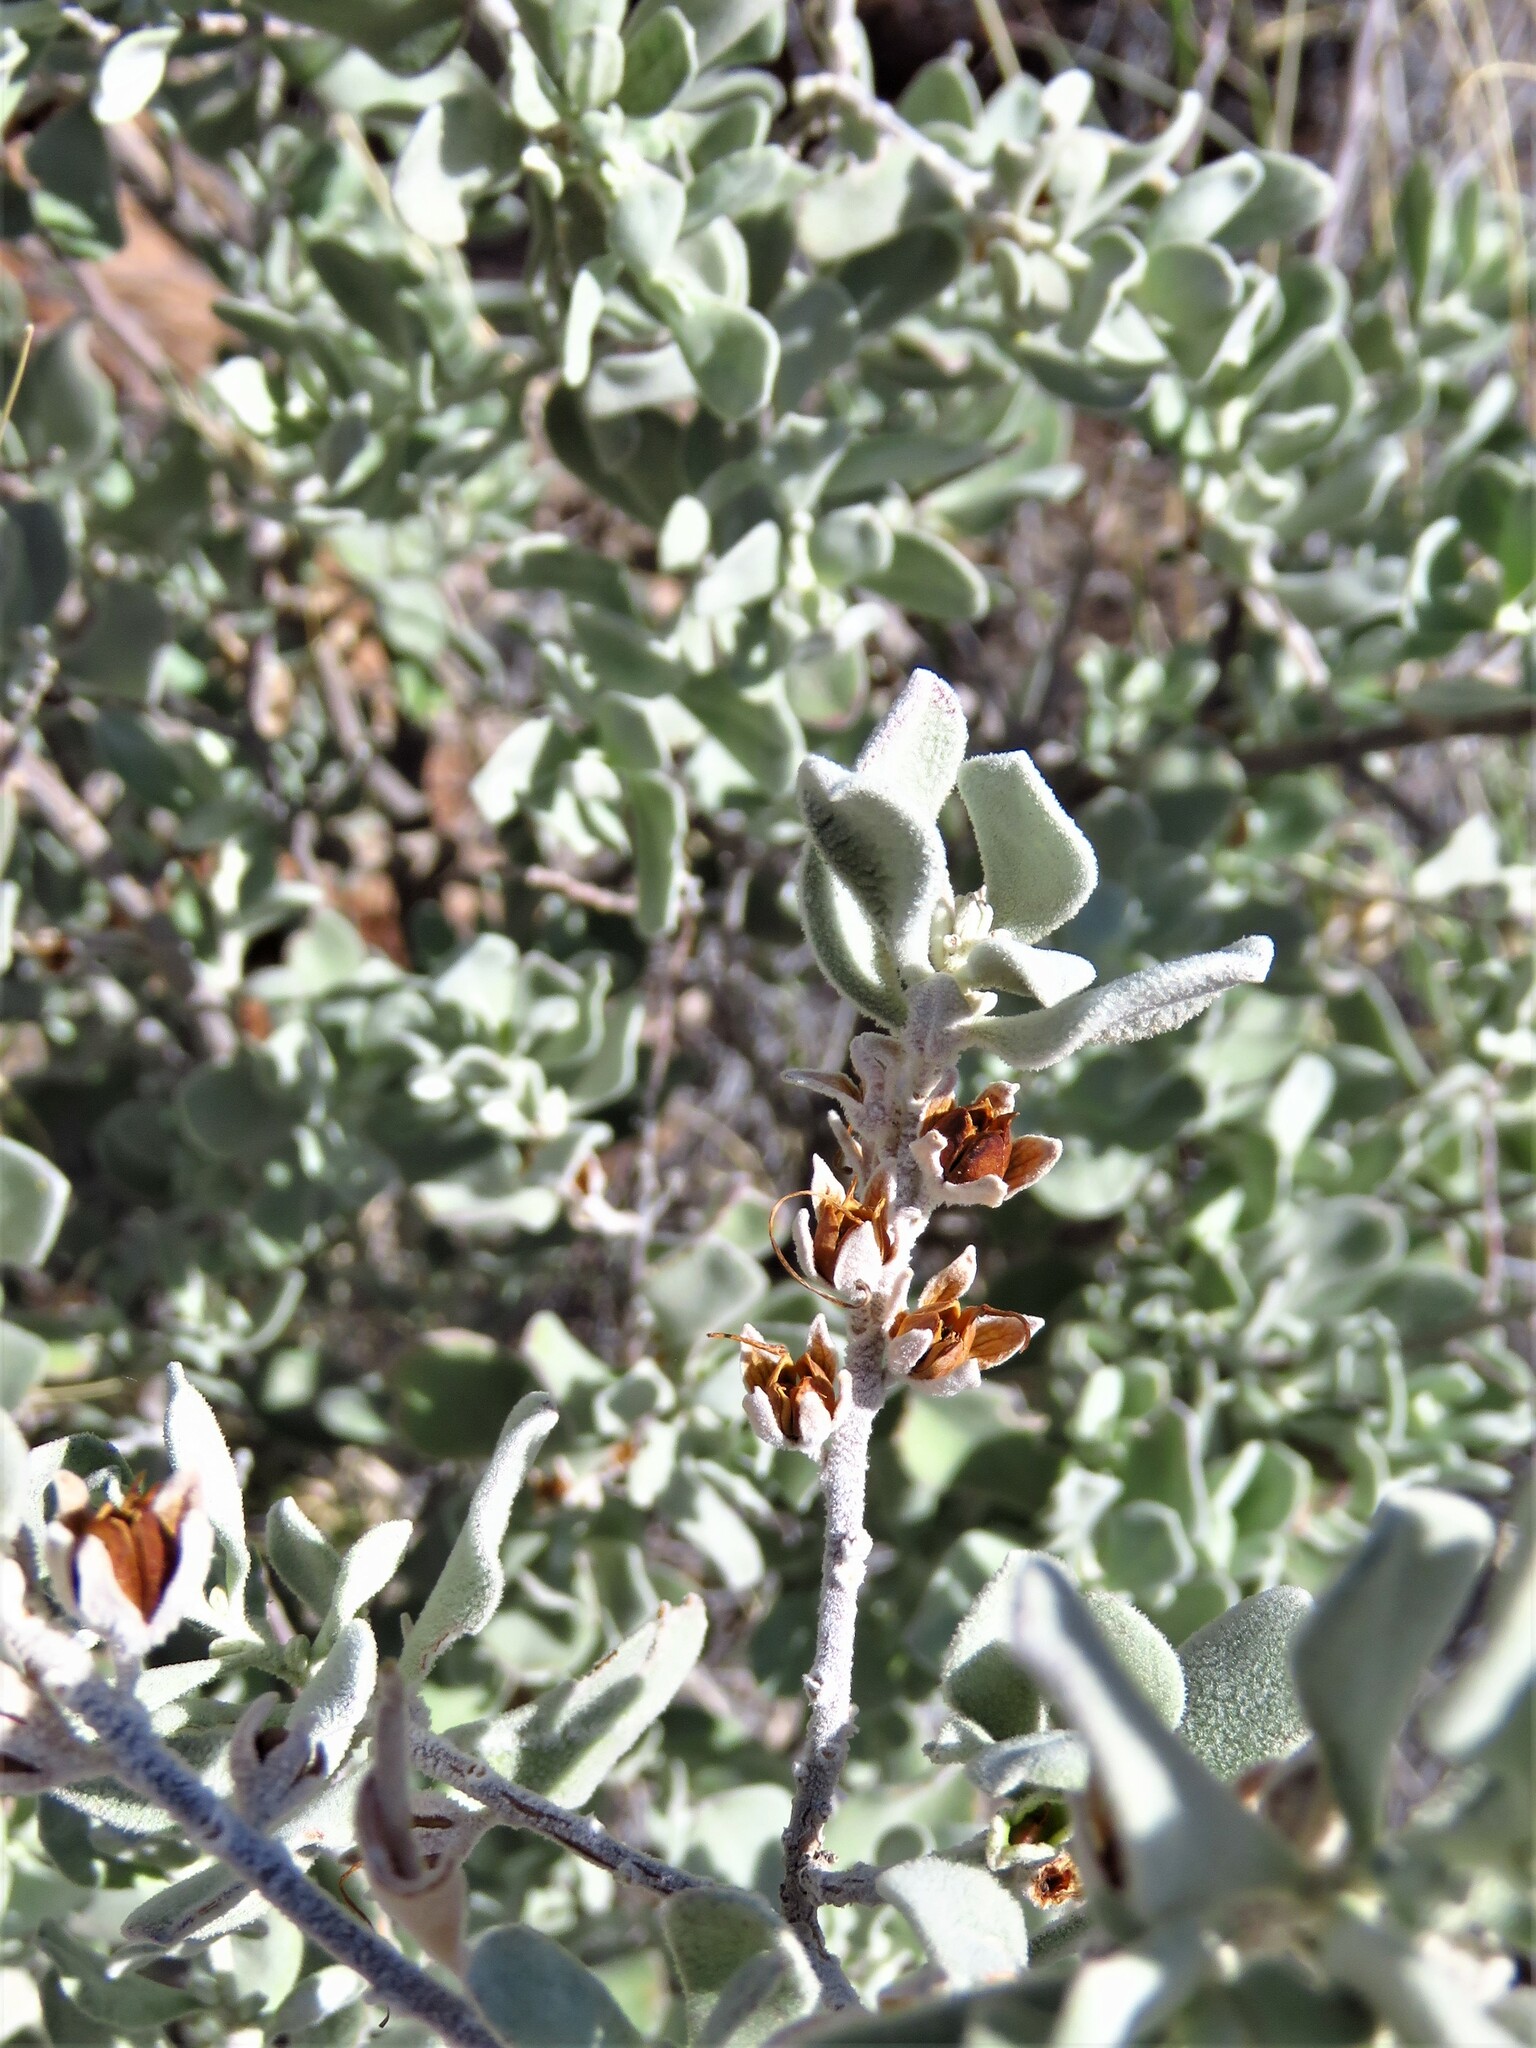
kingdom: Plantae
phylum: Tracheophyta
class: Magnoliopsida
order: Lamiales
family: Scrophulariaceae
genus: Leucophyllum
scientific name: Leucophyllum frutescens
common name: Texas silverleaf
